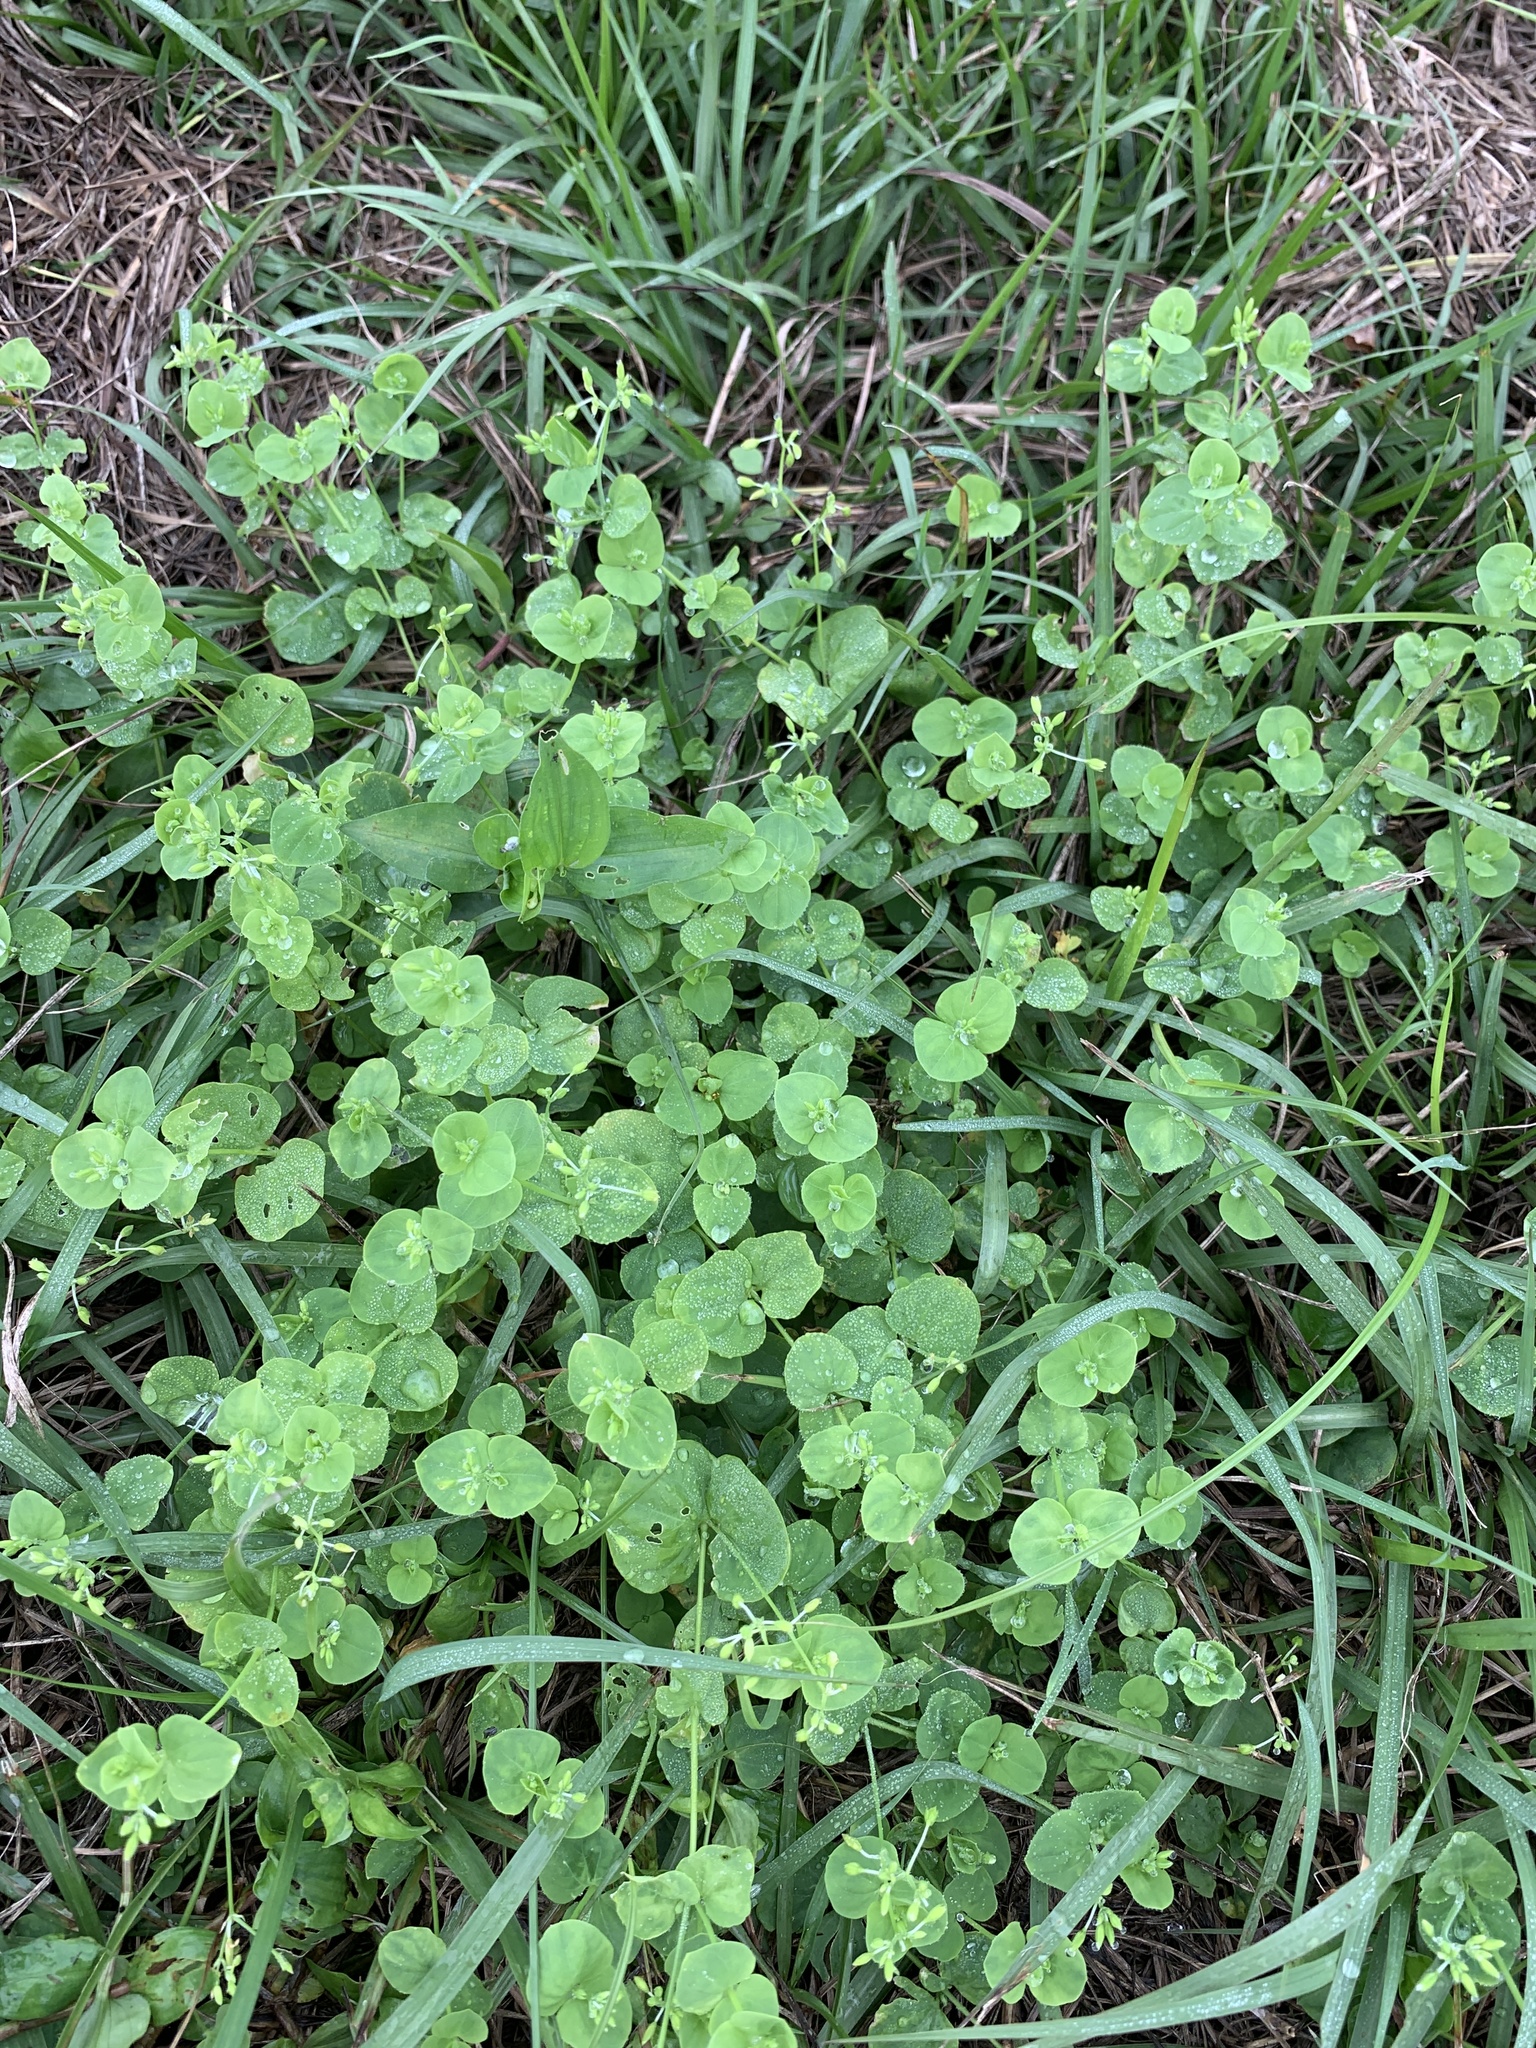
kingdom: Plantae
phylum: Tracheophyta
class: Magnoliopsida
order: Caryophyllales
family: Caryophyllaceae
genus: Drymaria
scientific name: Drymaria cordata
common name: Whitesnow
